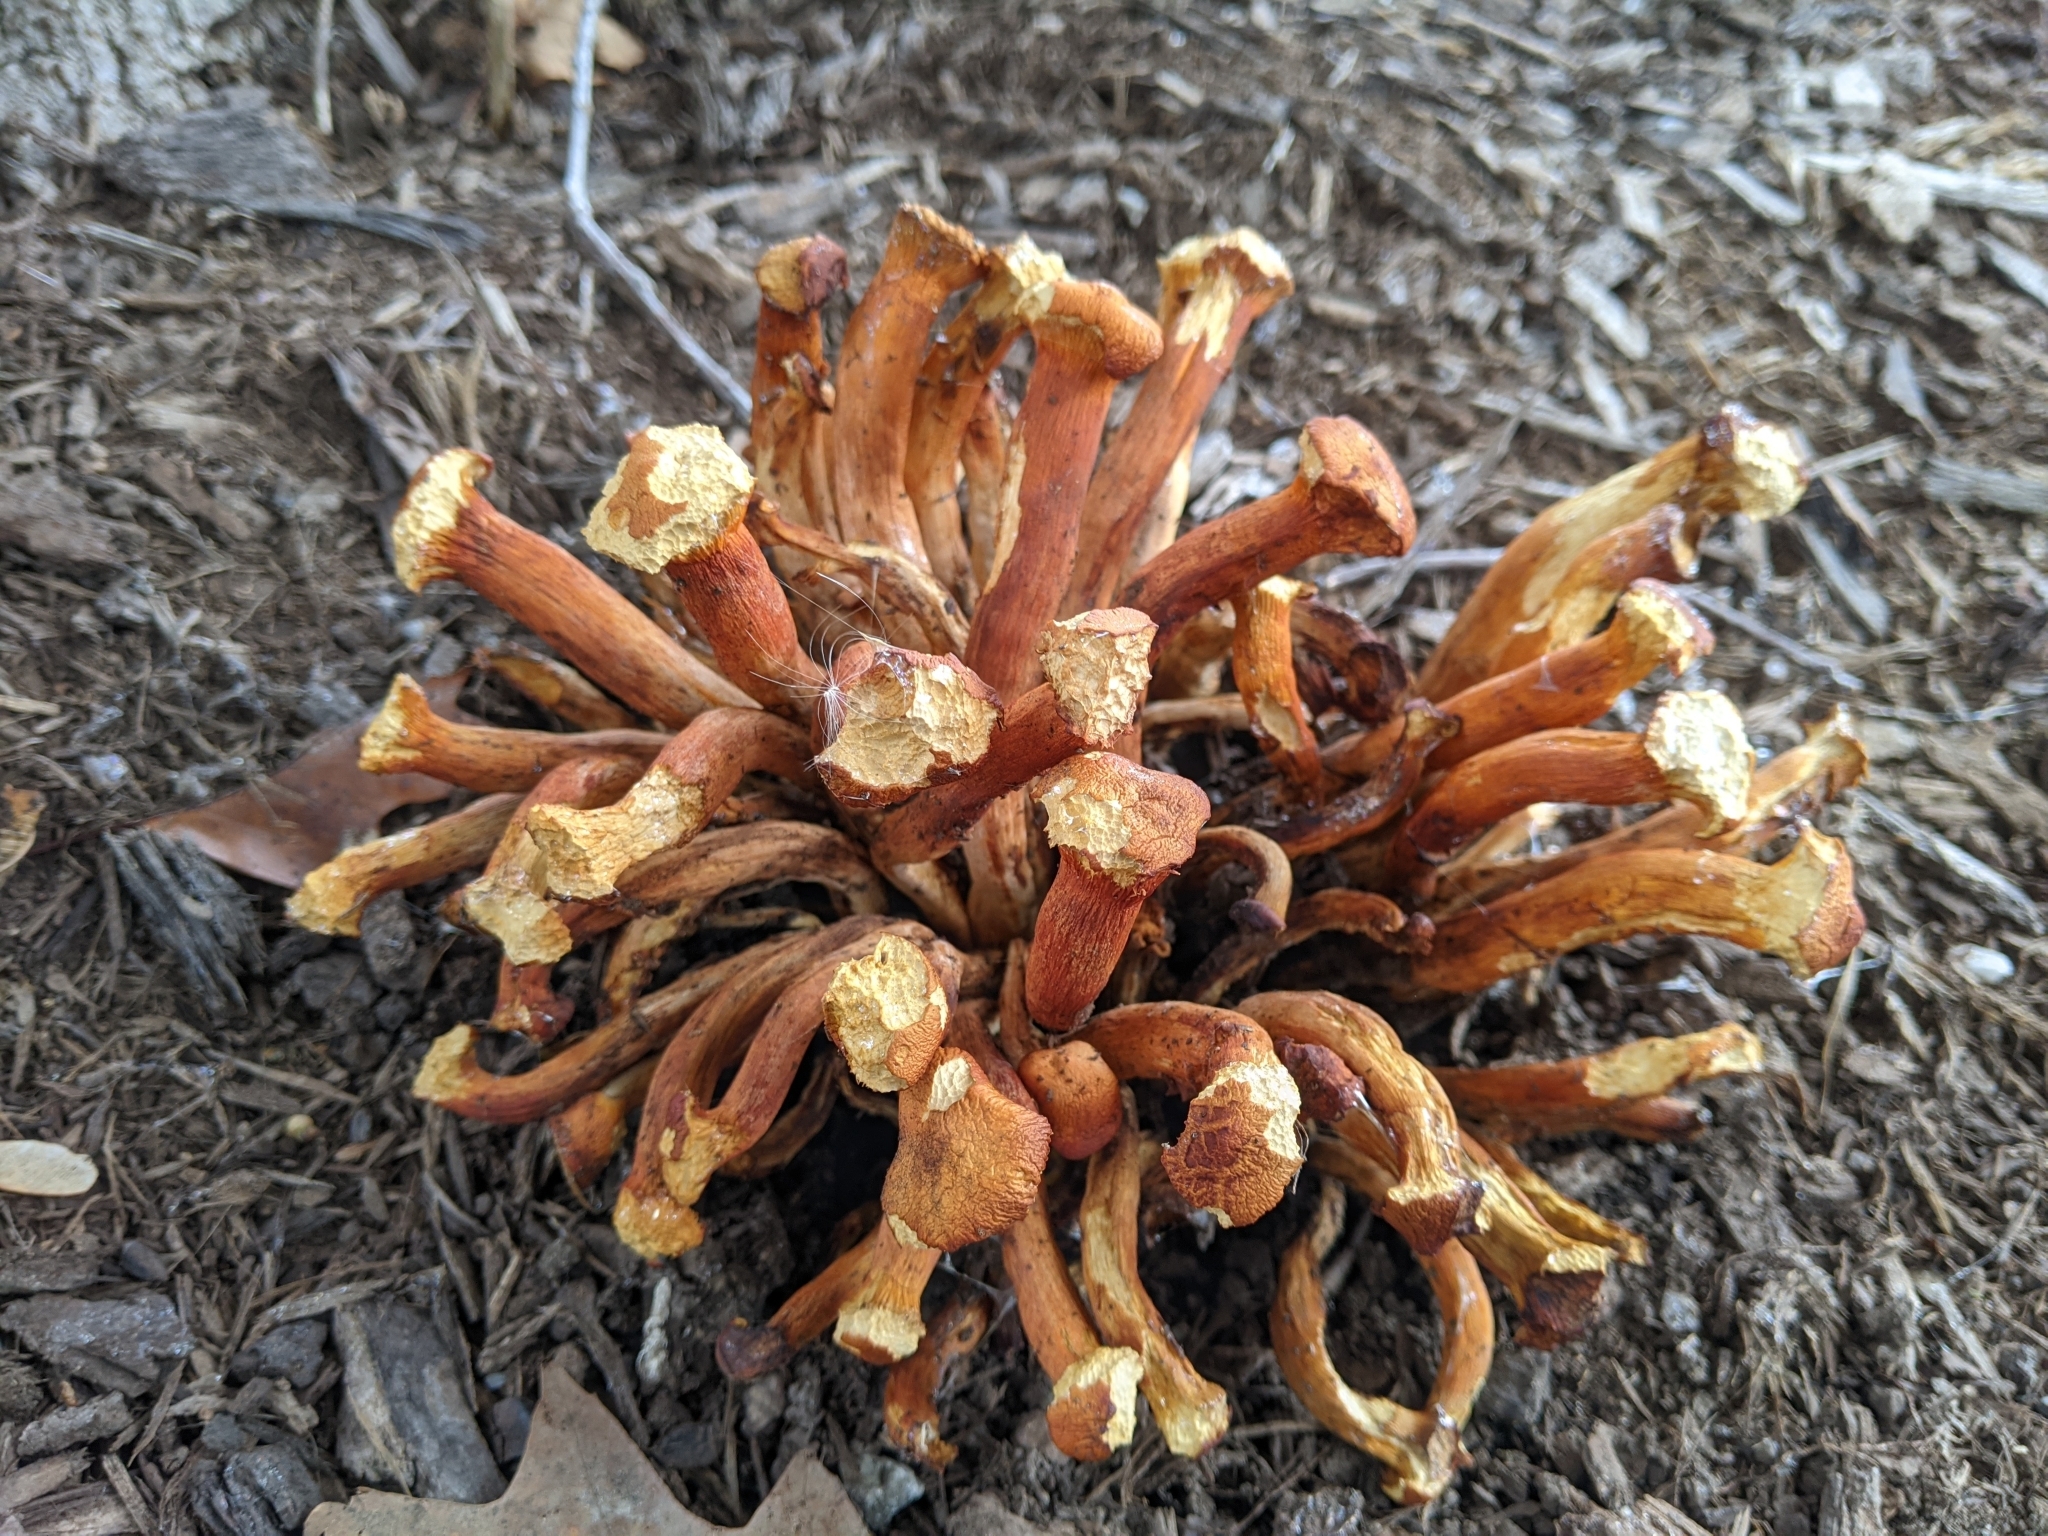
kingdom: Fungi
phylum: Basidiomycota
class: Agaricomycetes
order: Agaricales
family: Omphalotaceae
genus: Omphalotus
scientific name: Omphalotus illudens
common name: Jack o lantern
